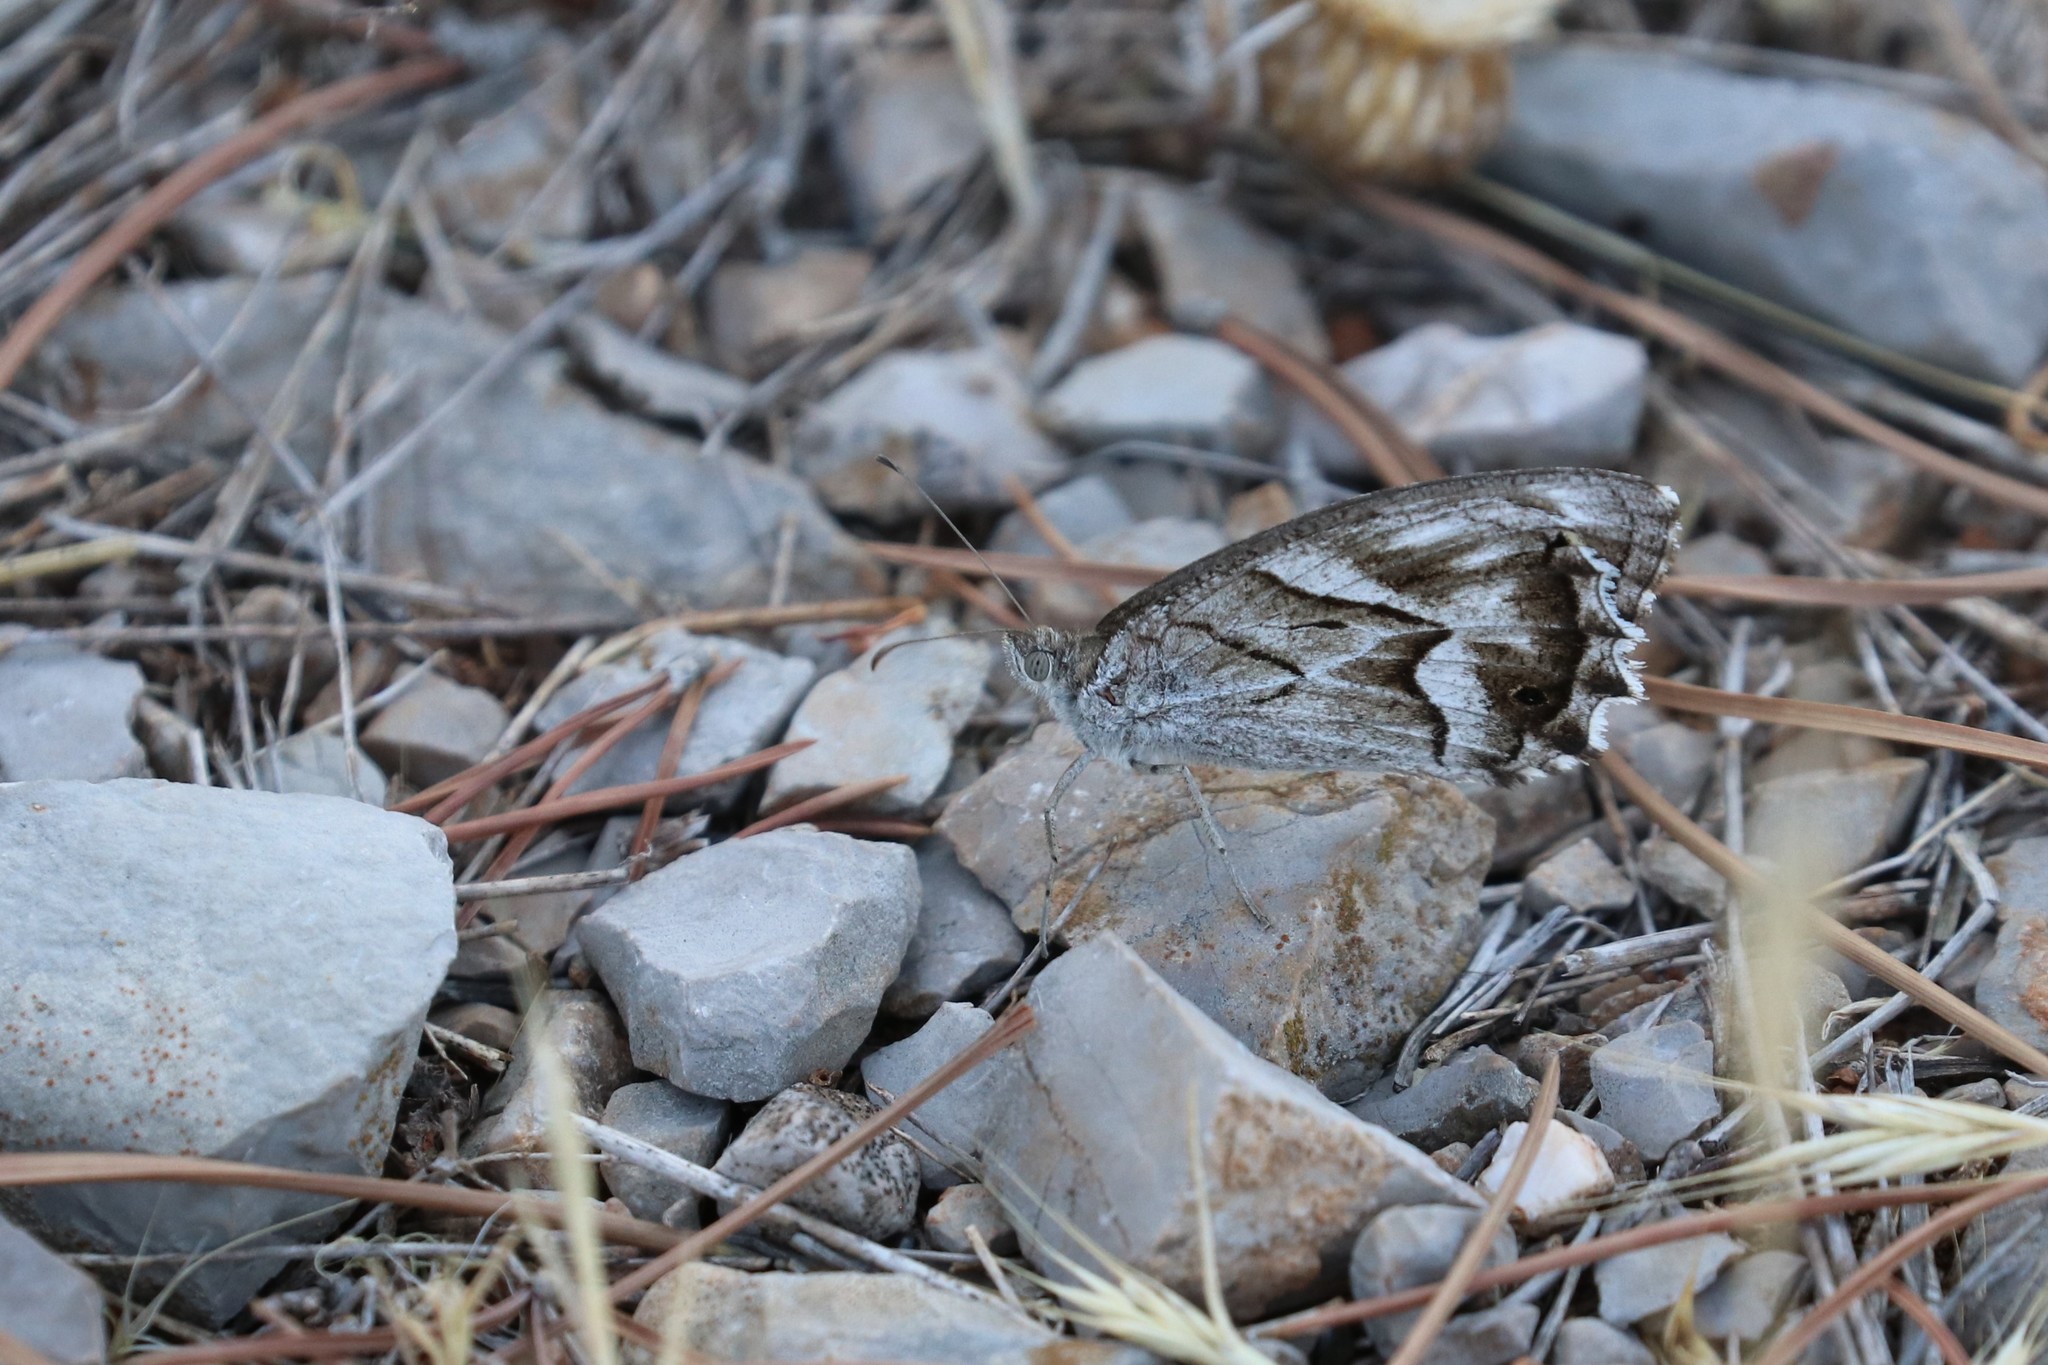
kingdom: Animalia
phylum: Arthropoda
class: Insecta
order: Lepidoptera
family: Nymphalidae
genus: Hipparchia
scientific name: Hipparchia fidia
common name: Striped grayling
